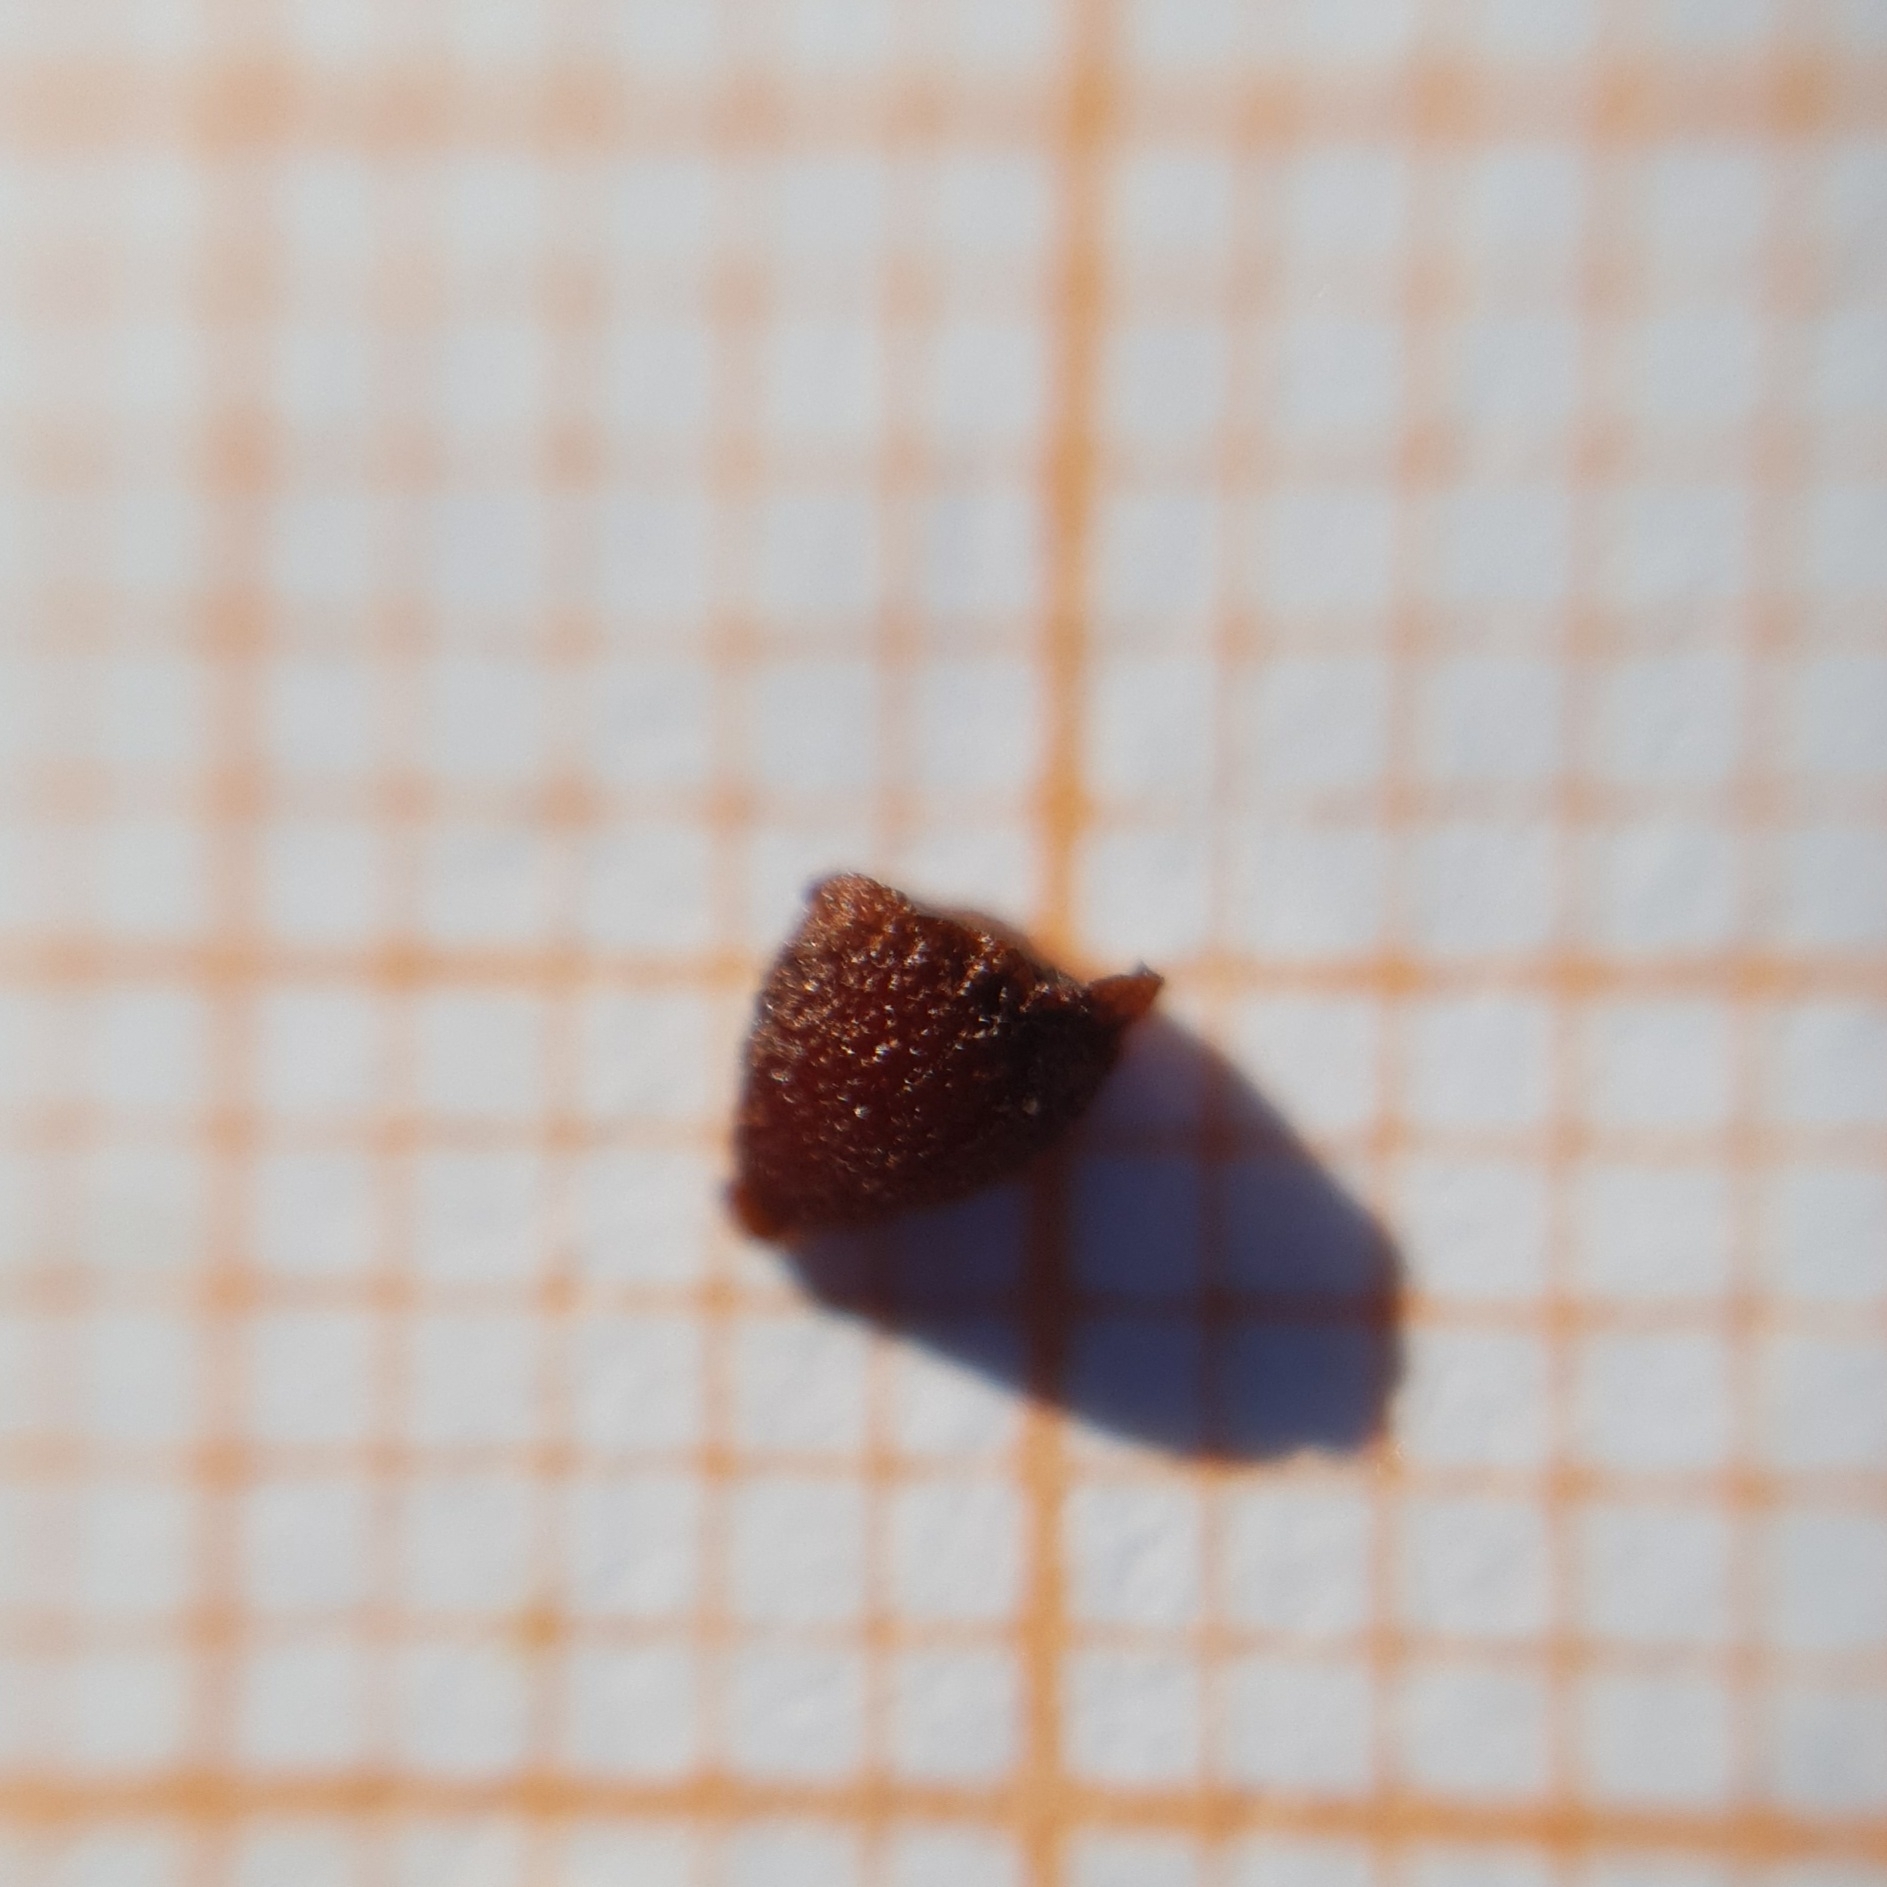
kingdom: Plantae
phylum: Tracheophyta
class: Liliopsida
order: Asparagales
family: Iridaceae
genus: Iris
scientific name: Iris juncea
